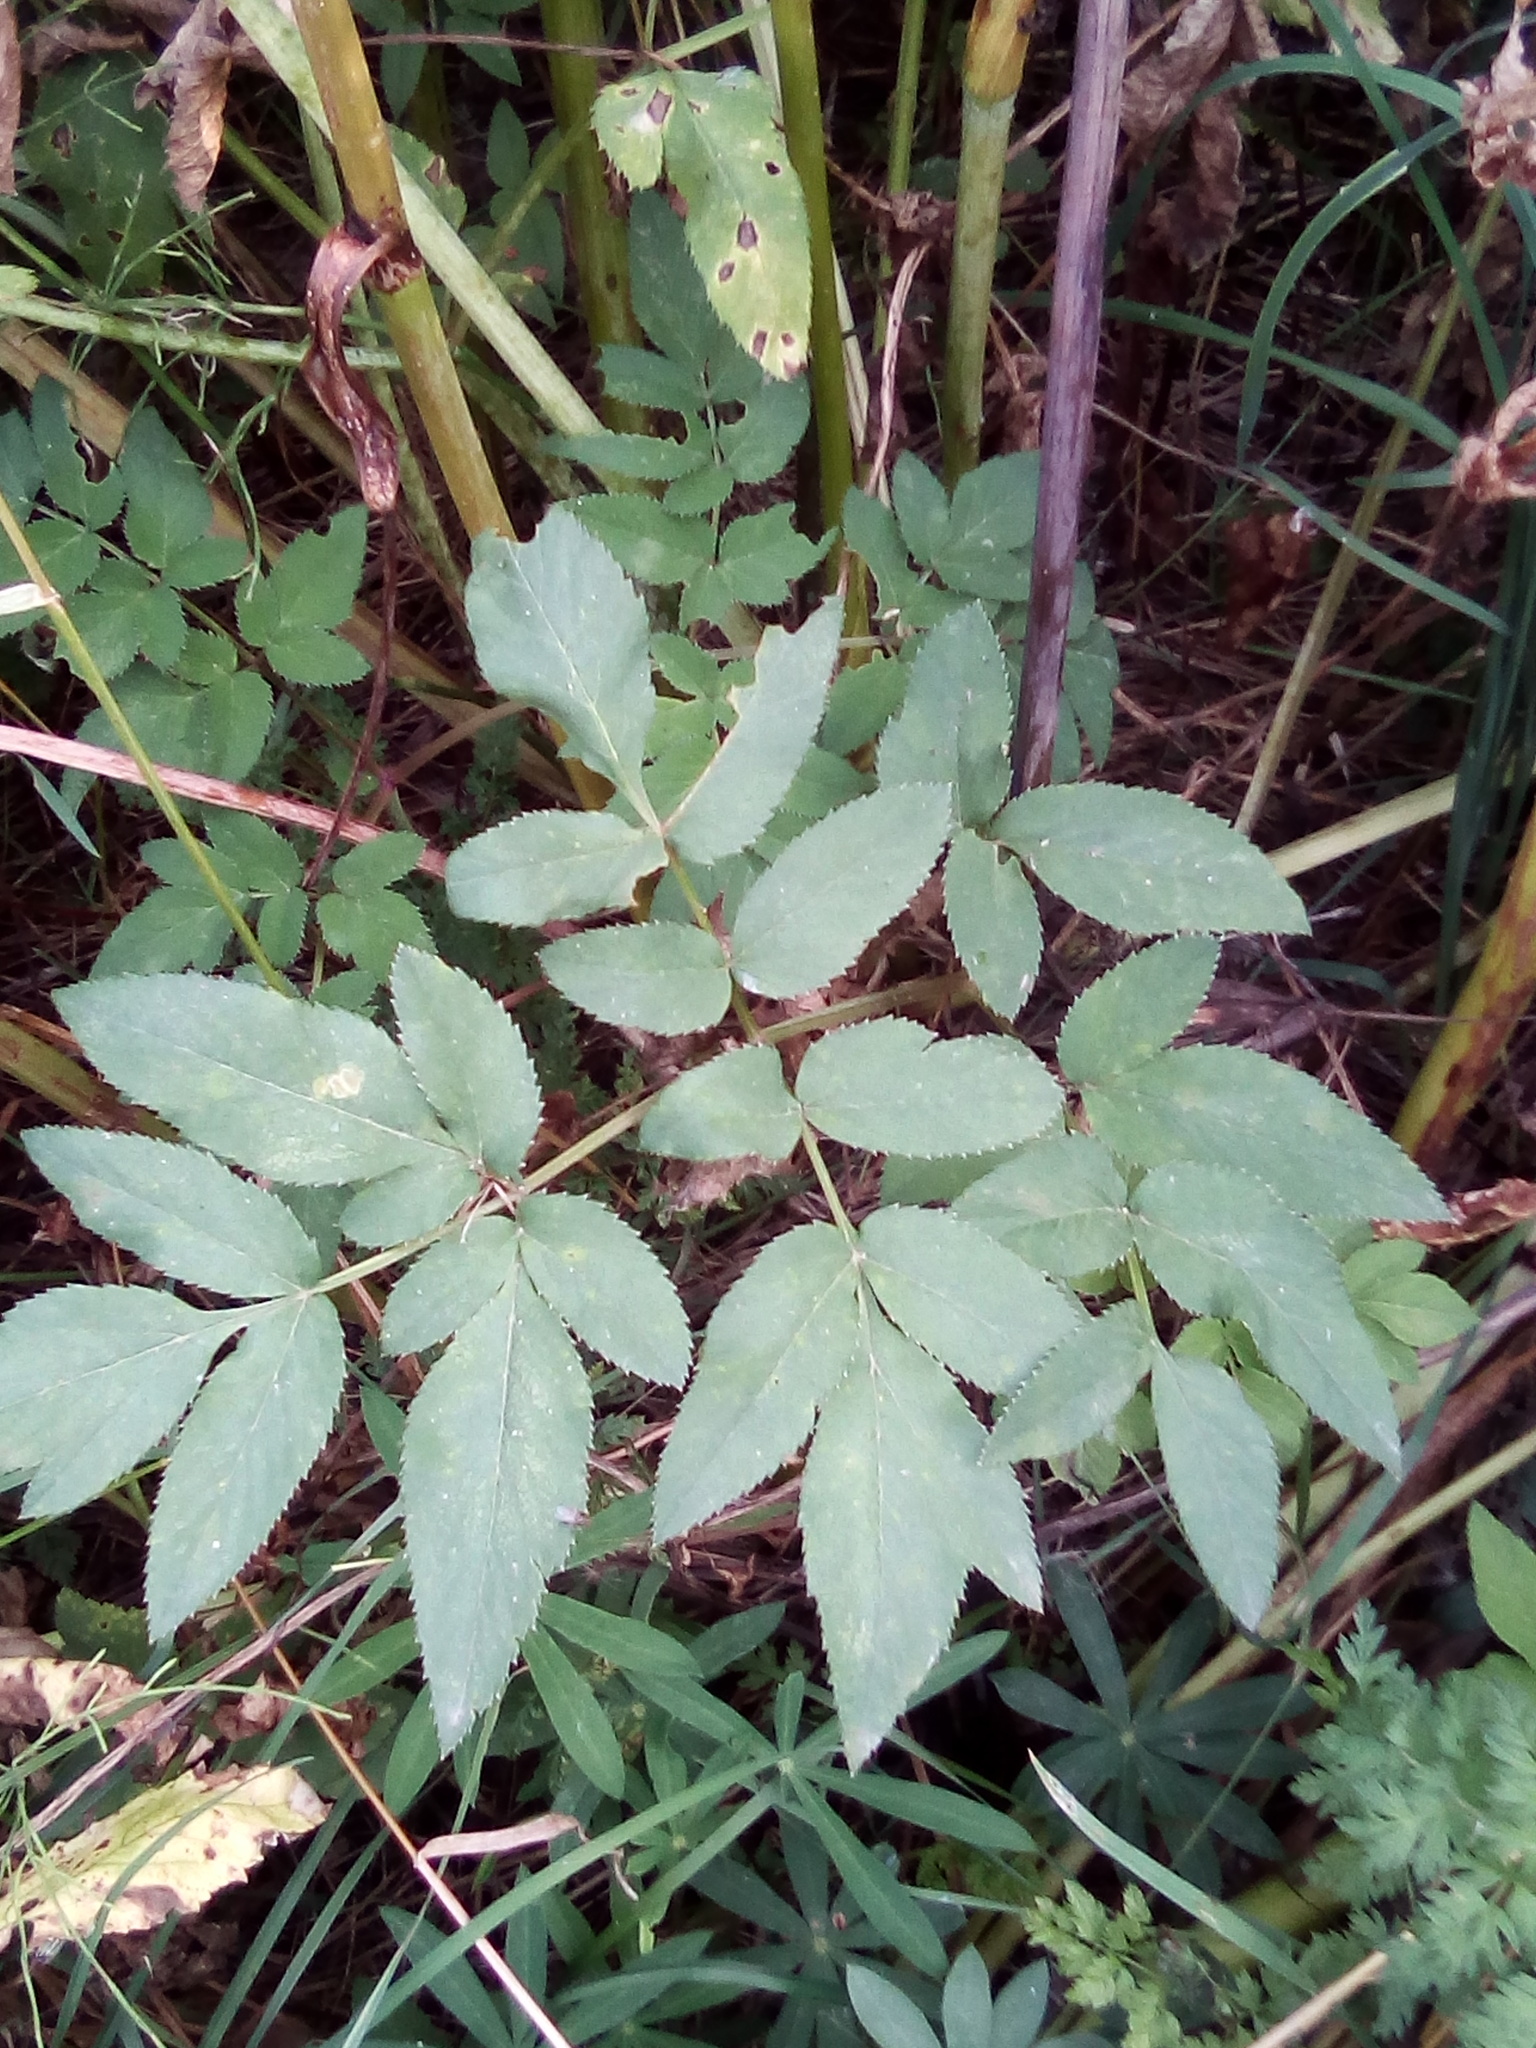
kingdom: Plantae
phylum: Tracheophyta
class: Magnoliopsida
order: Apiales
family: Apiaceae
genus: Angelica
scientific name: Angelica sylvestris
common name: Wild angelica
